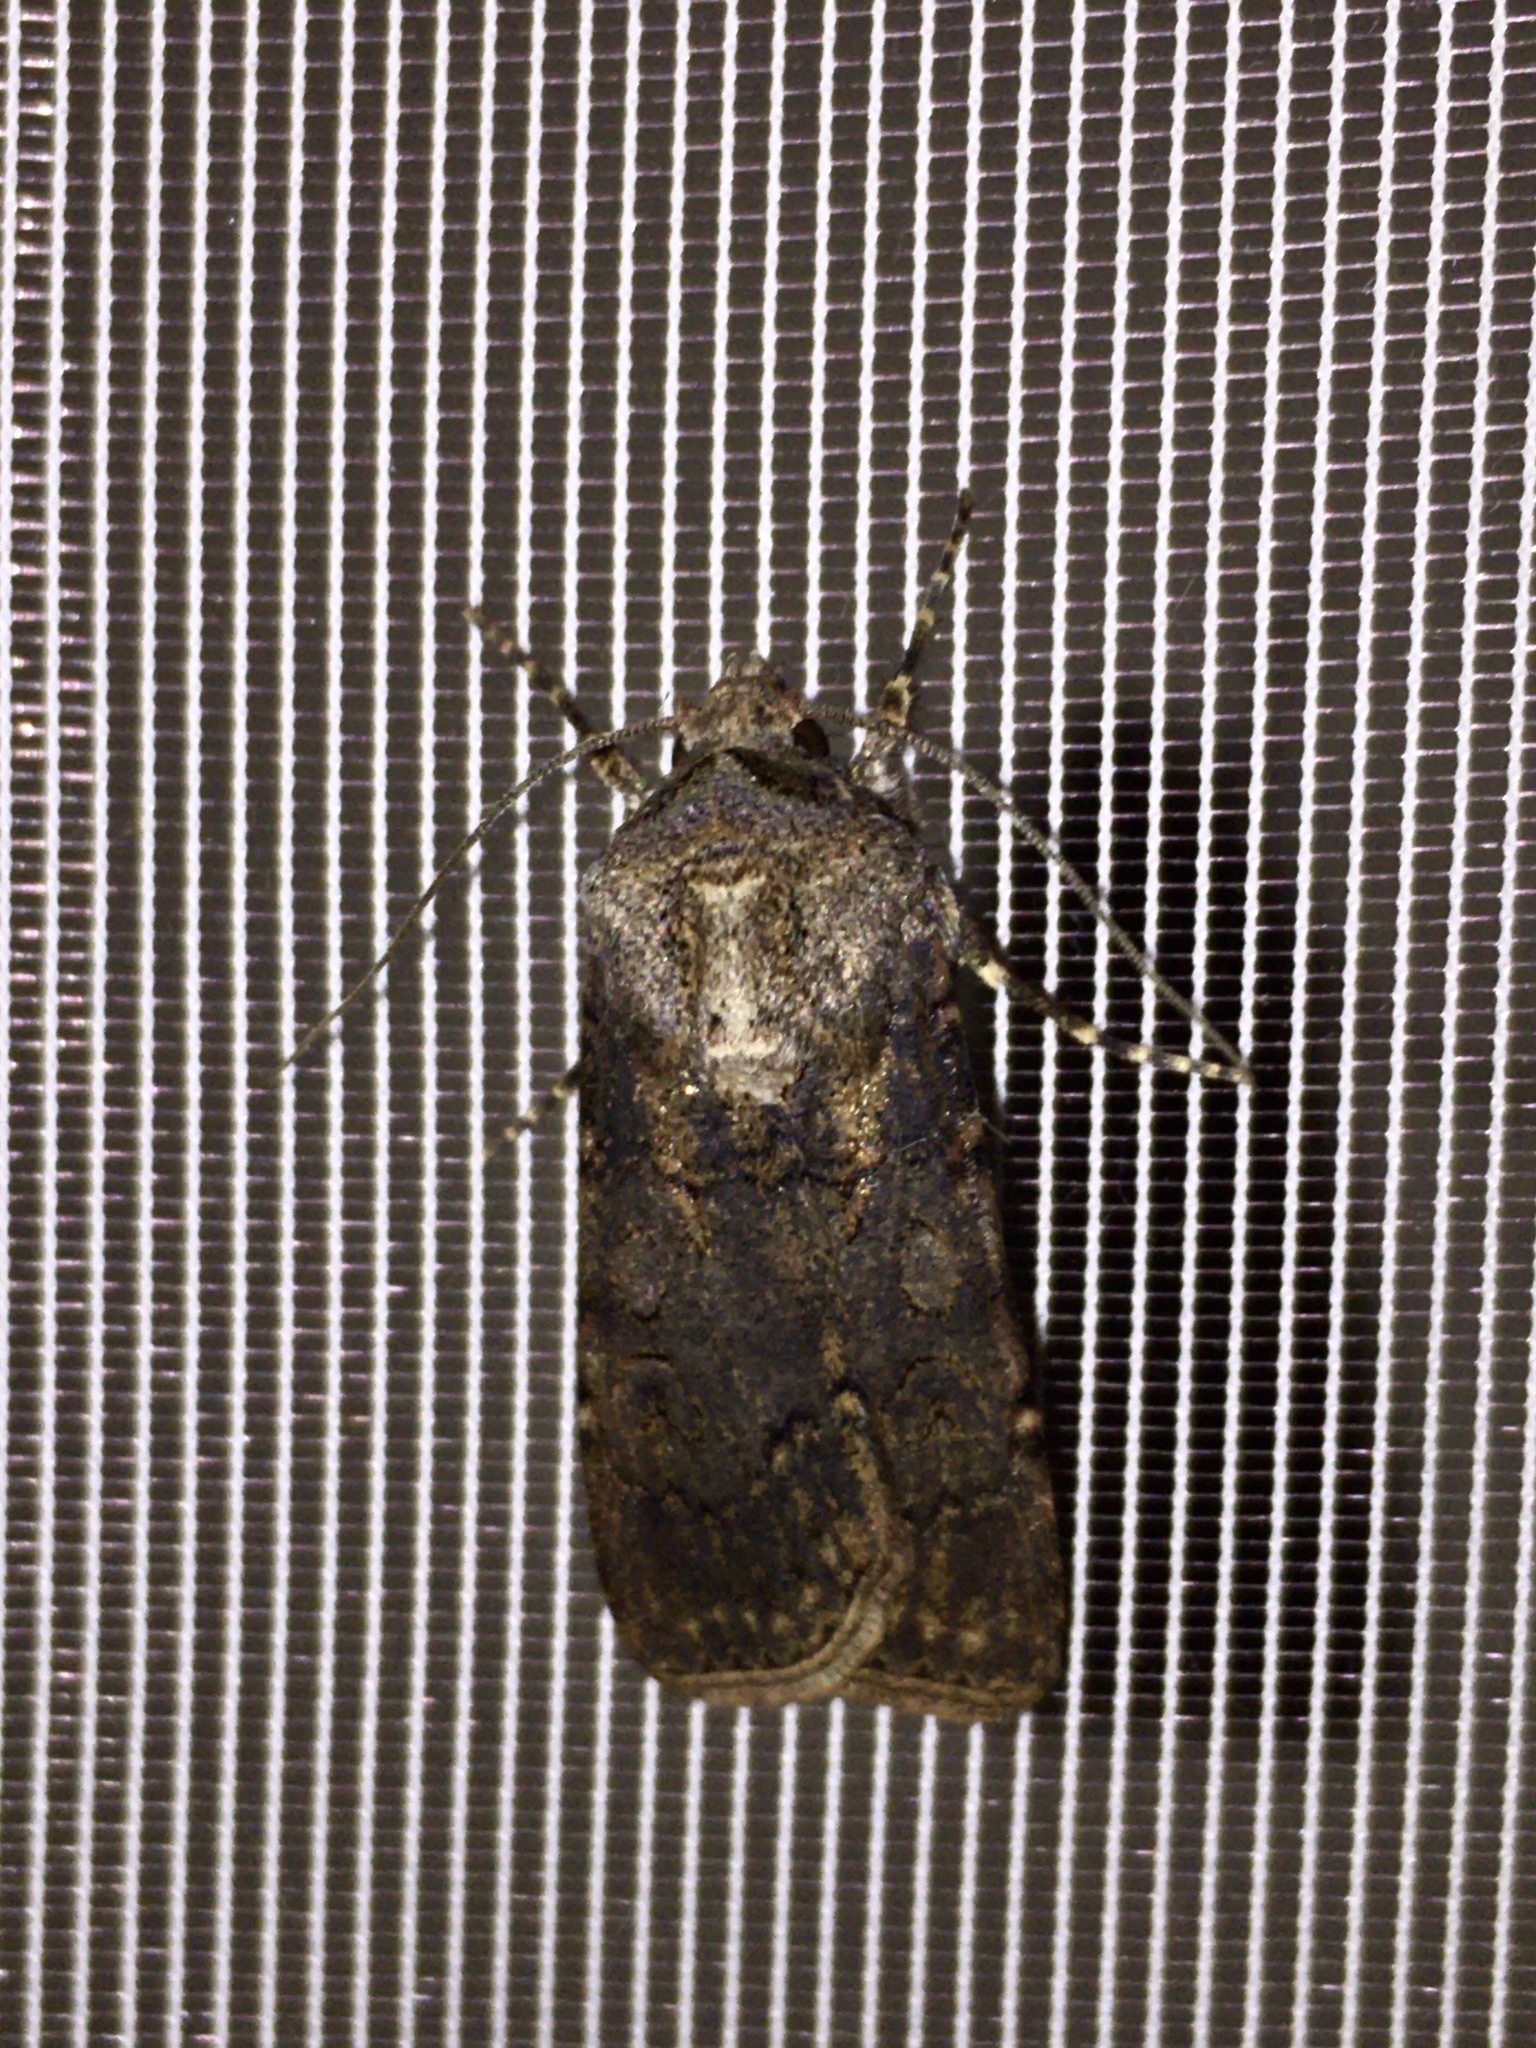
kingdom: Animalia
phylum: Arthropoda
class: Insecta
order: Lepidoptera
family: Noctuidae
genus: Agrotis
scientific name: Agrotis segetum
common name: Turnip moth
